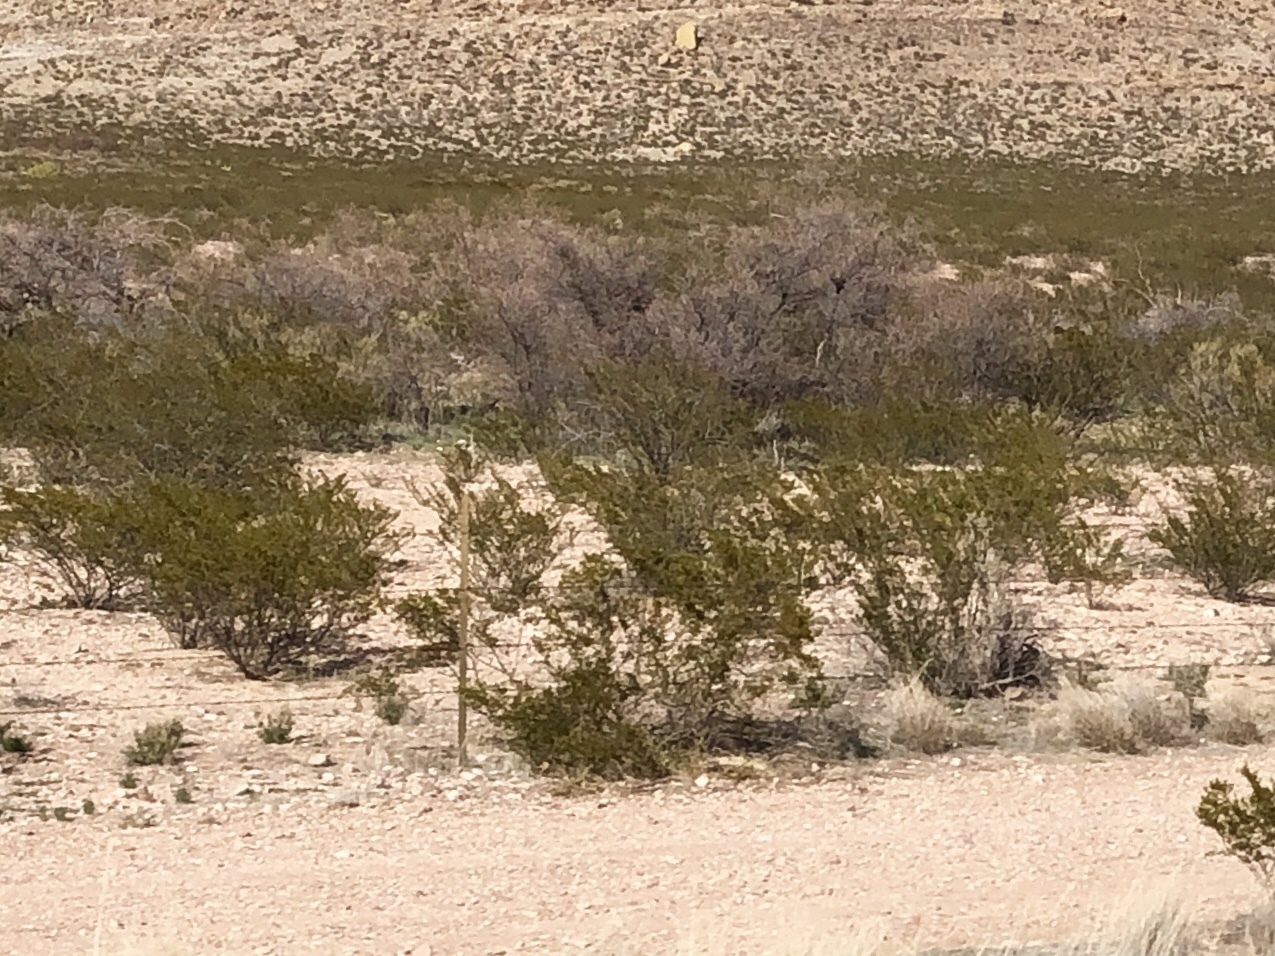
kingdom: Plantae
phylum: Tracheophyta
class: Magnoliopsida
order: Zygophyllales
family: Zygophyllaceae
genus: Larrea
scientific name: Larrea tridentata
